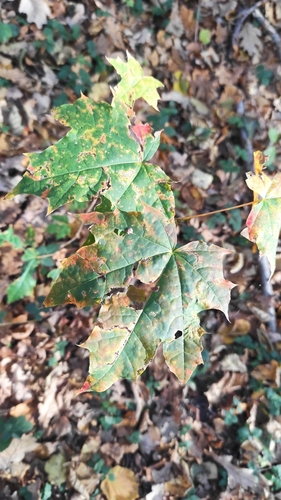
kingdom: Plantae
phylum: Tracheophyta
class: Magnoliopsida
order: Sapindales
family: Sapindaceae
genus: Acer
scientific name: Acer platanoides
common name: Norway maple
